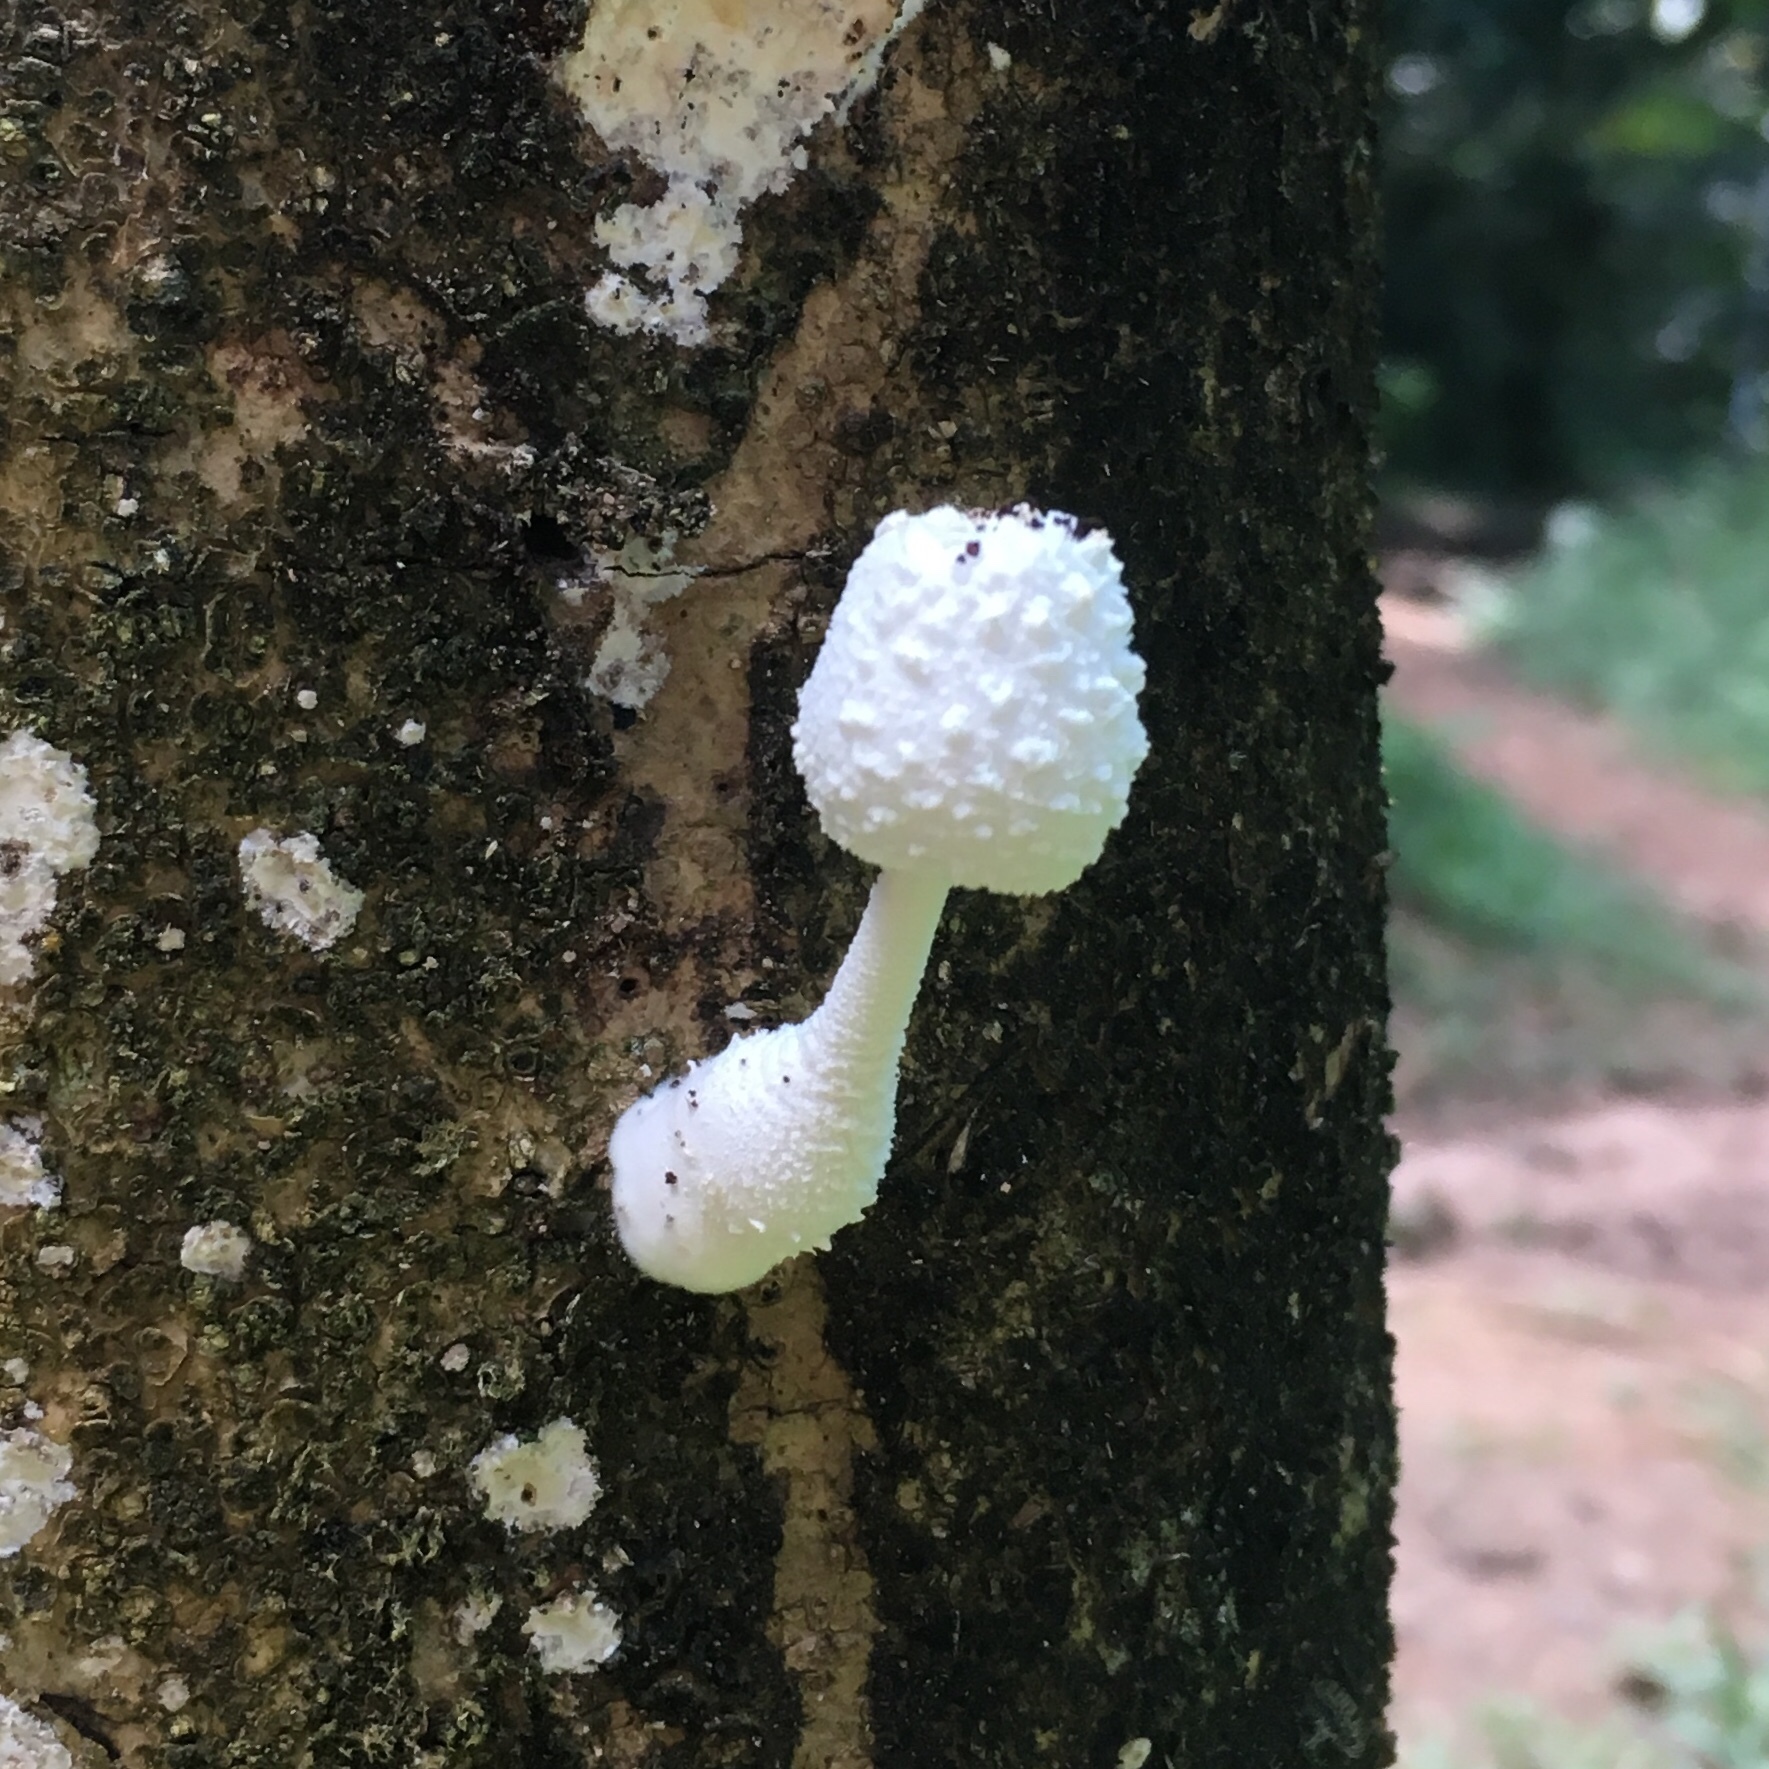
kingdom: Fungi
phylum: Basidiomycota
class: Agaricomycetes
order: Agaricales
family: Agaricaceae
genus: Leucocoprinus
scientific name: Leucocoprinus cretaceus
